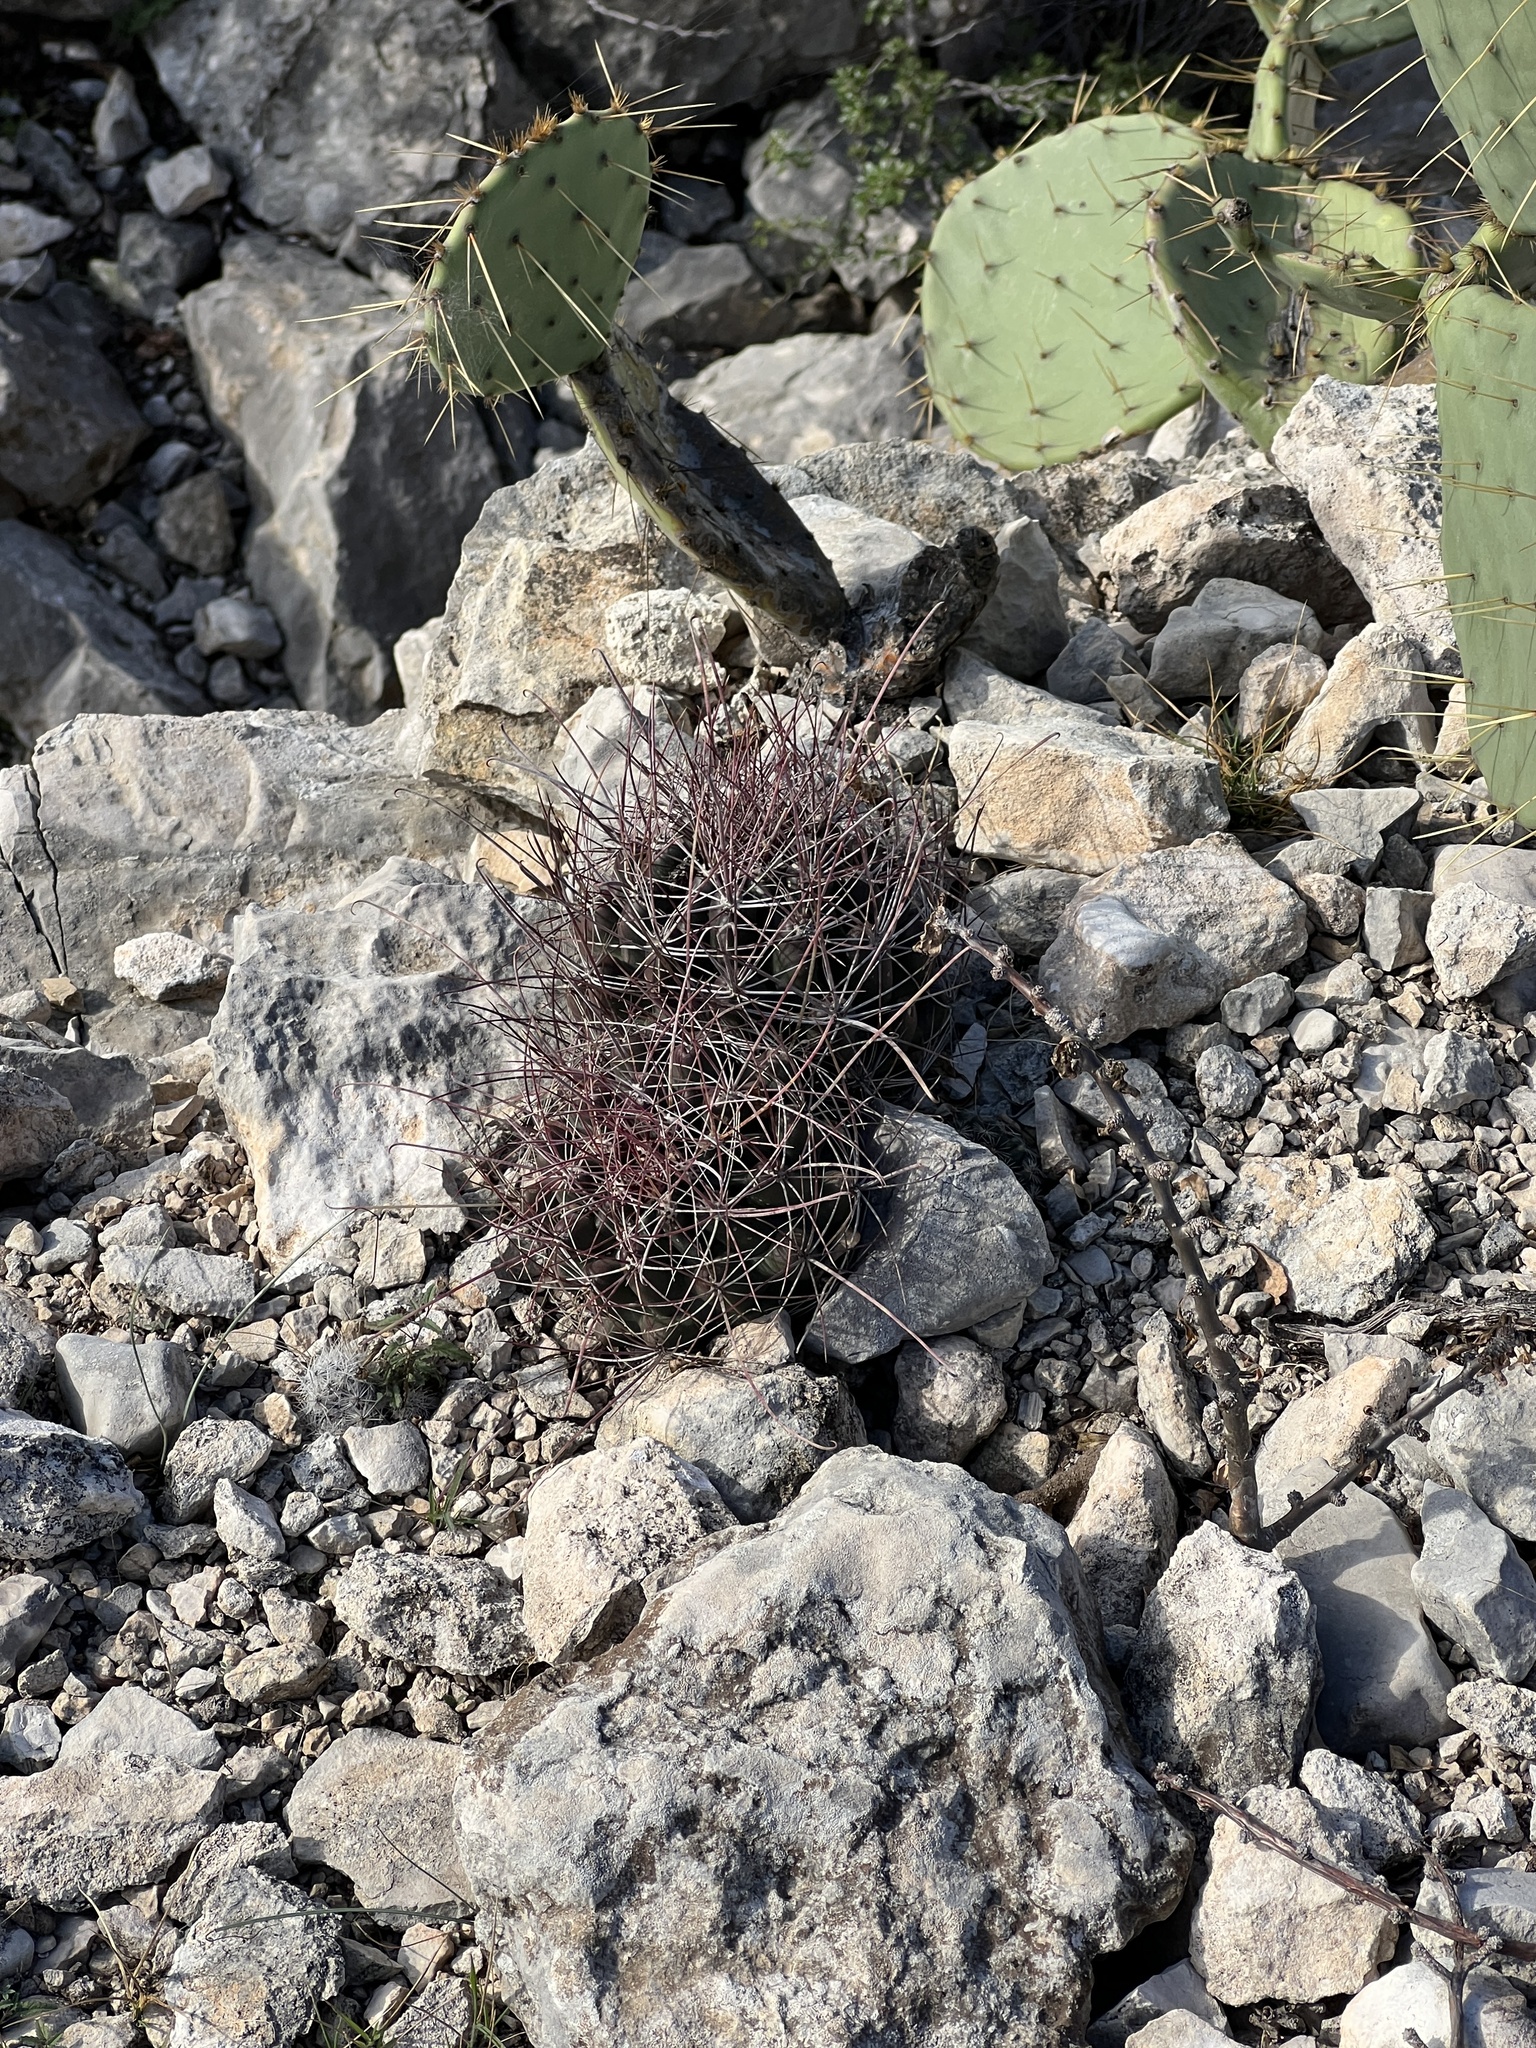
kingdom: Plantae
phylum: Tracheophyta
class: Magnoliopsida
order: Caryophyllales
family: Cactaceae
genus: Bisnaga
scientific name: Bisnaga hamatacantha
